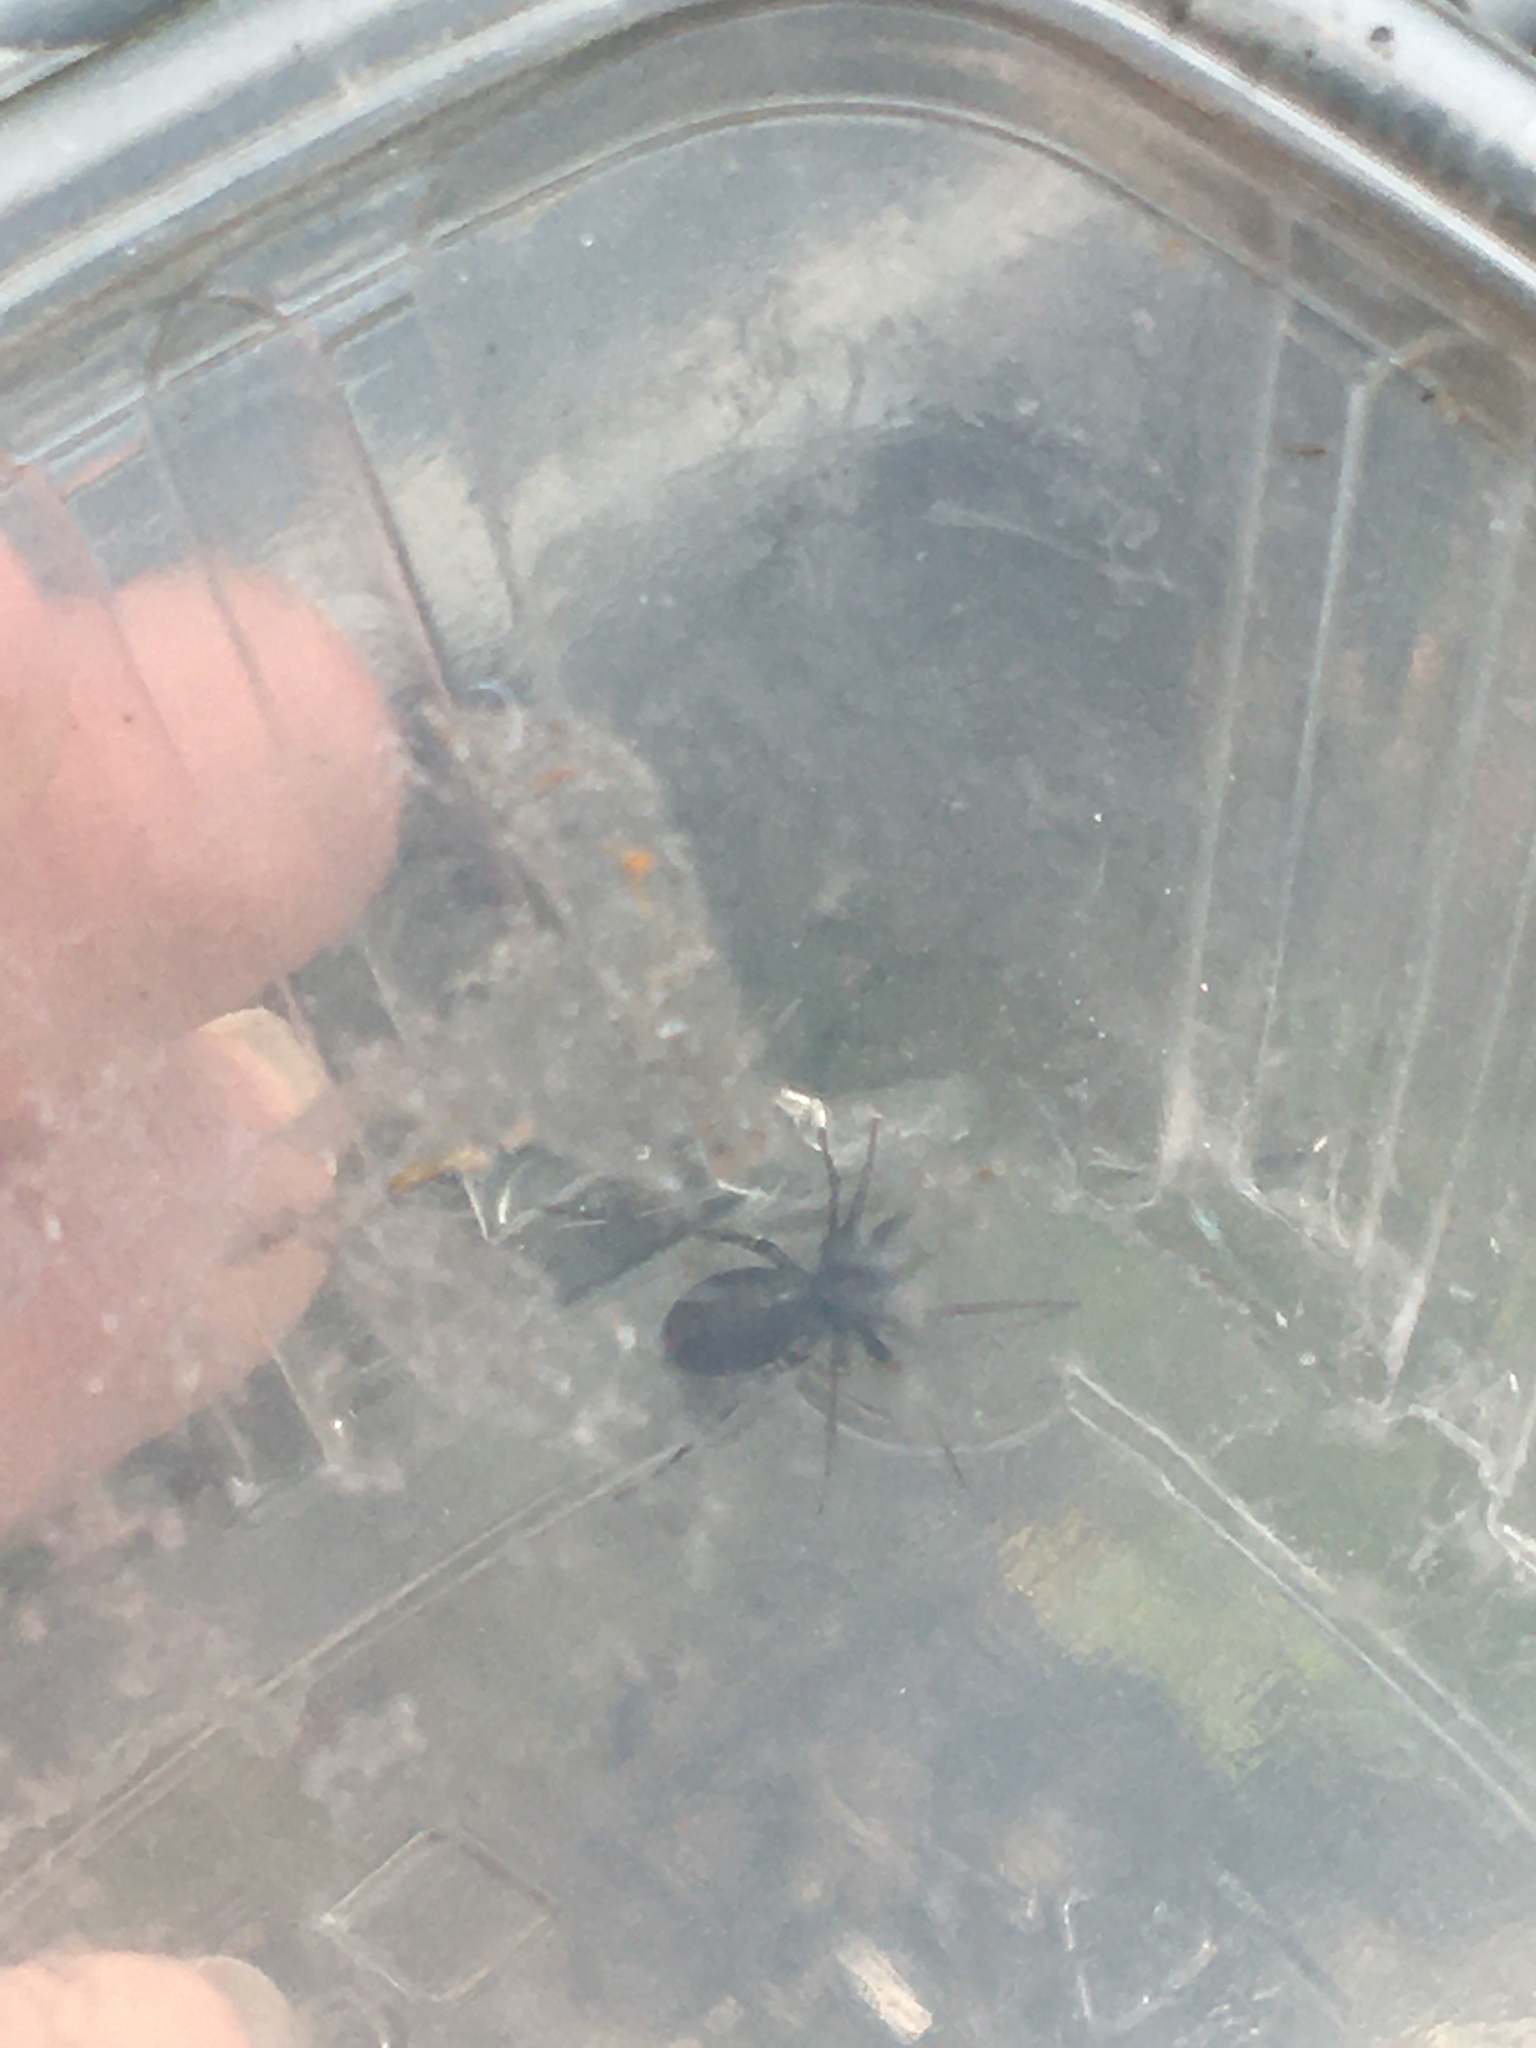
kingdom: Animalia
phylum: Arthropoda
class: Arachnida
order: Araneae
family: Corinnidae
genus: Castianeira
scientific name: Castianeira descripta
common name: Red-spotted ant-mimic sac spider
